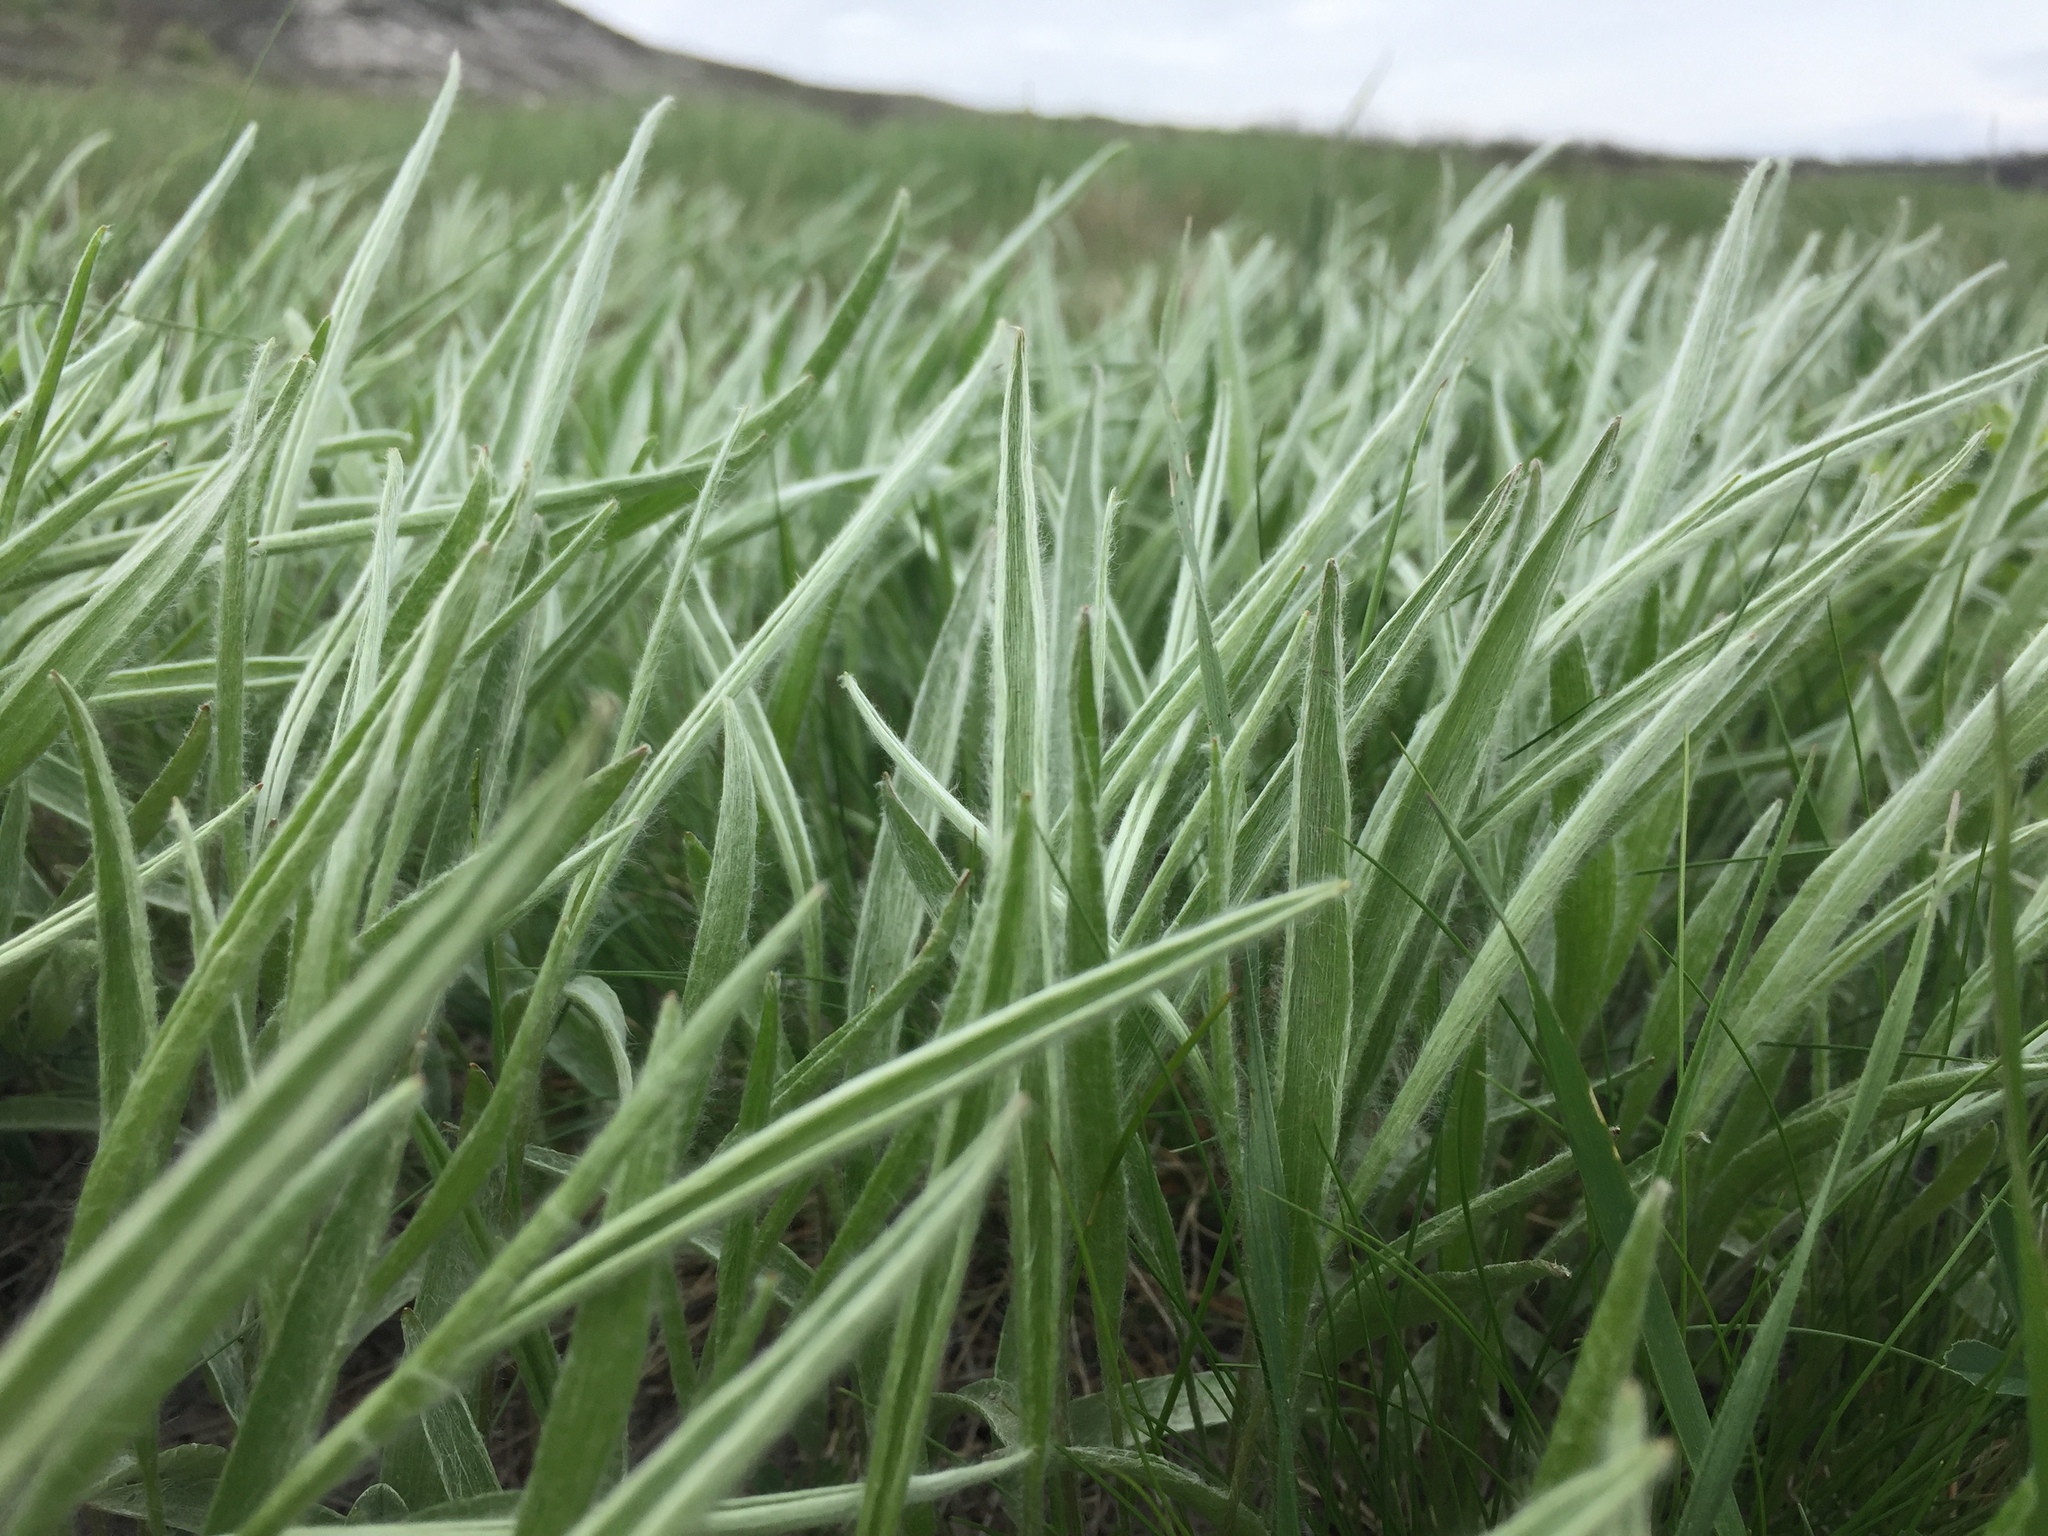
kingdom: Plantae
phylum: Tracheophyta
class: Magnoliopsida
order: Ranunculales
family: Ranunculaceae
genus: Ranunculus
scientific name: Ranunculus illyricus
